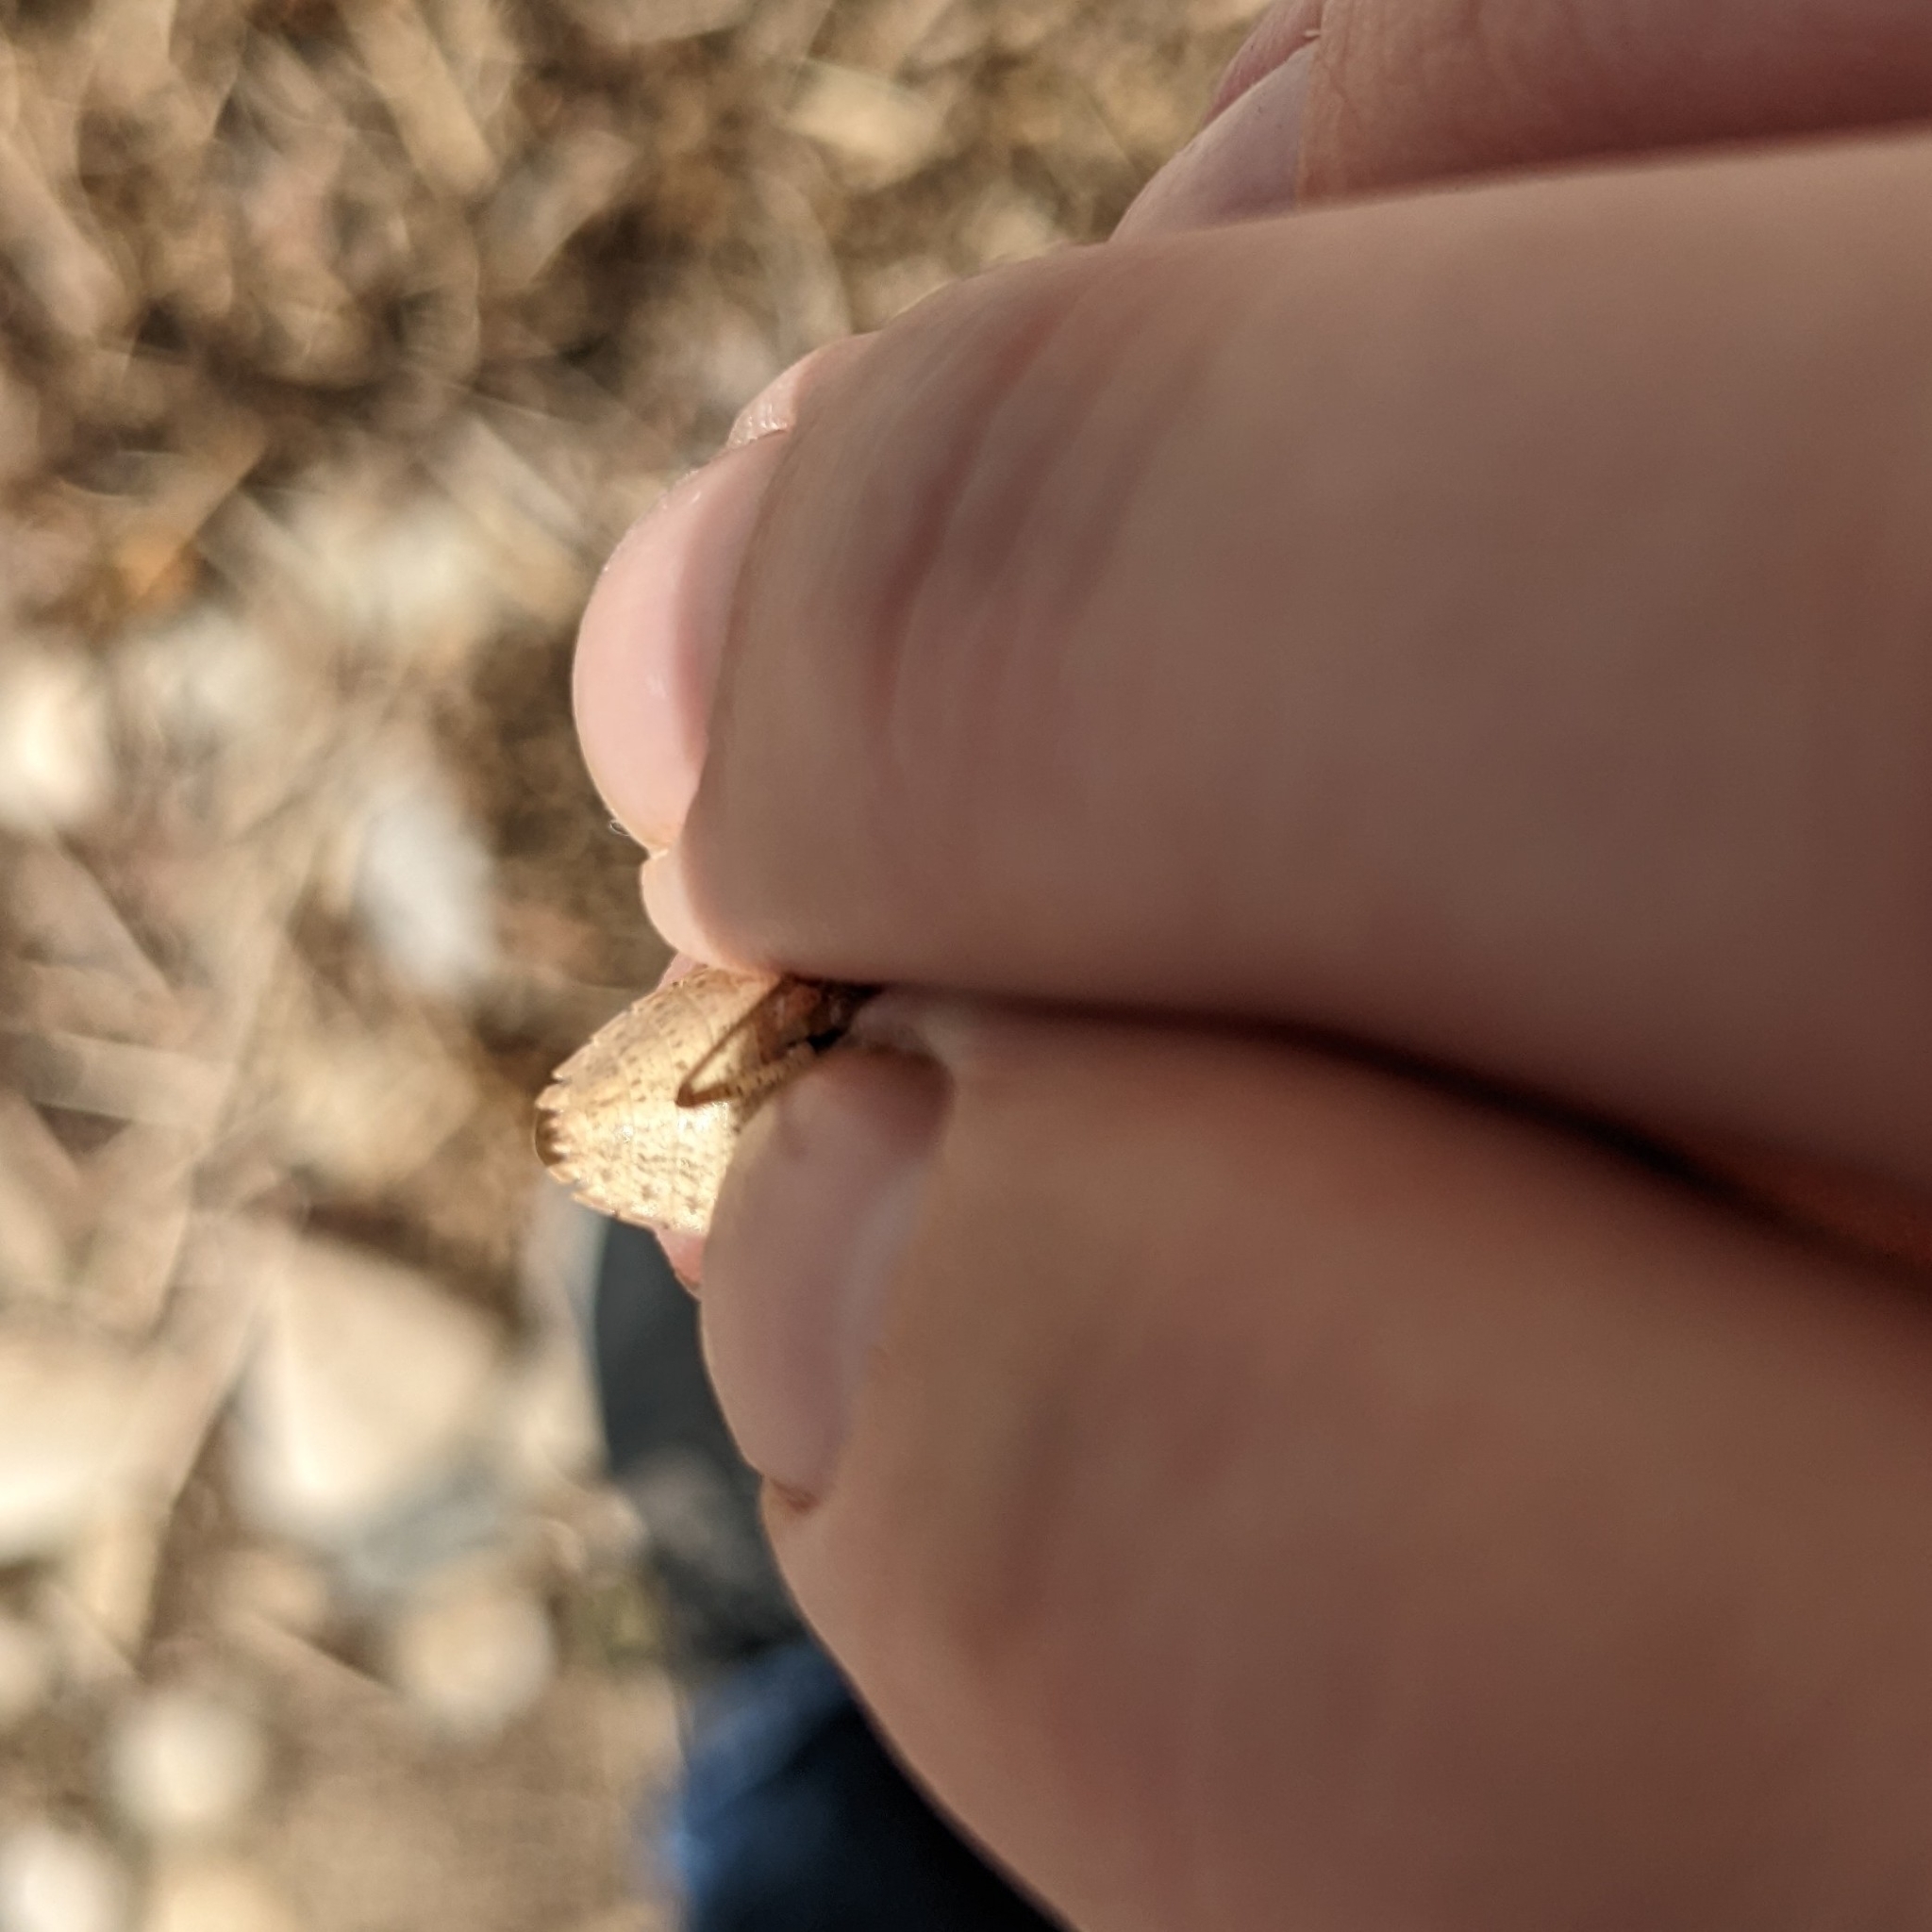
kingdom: Animalia
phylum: Arthropoda
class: Insecta
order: Hemiptera
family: Pentatomidae
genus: Euschistus
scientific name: Euschistus servus
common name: Brown stink bug
